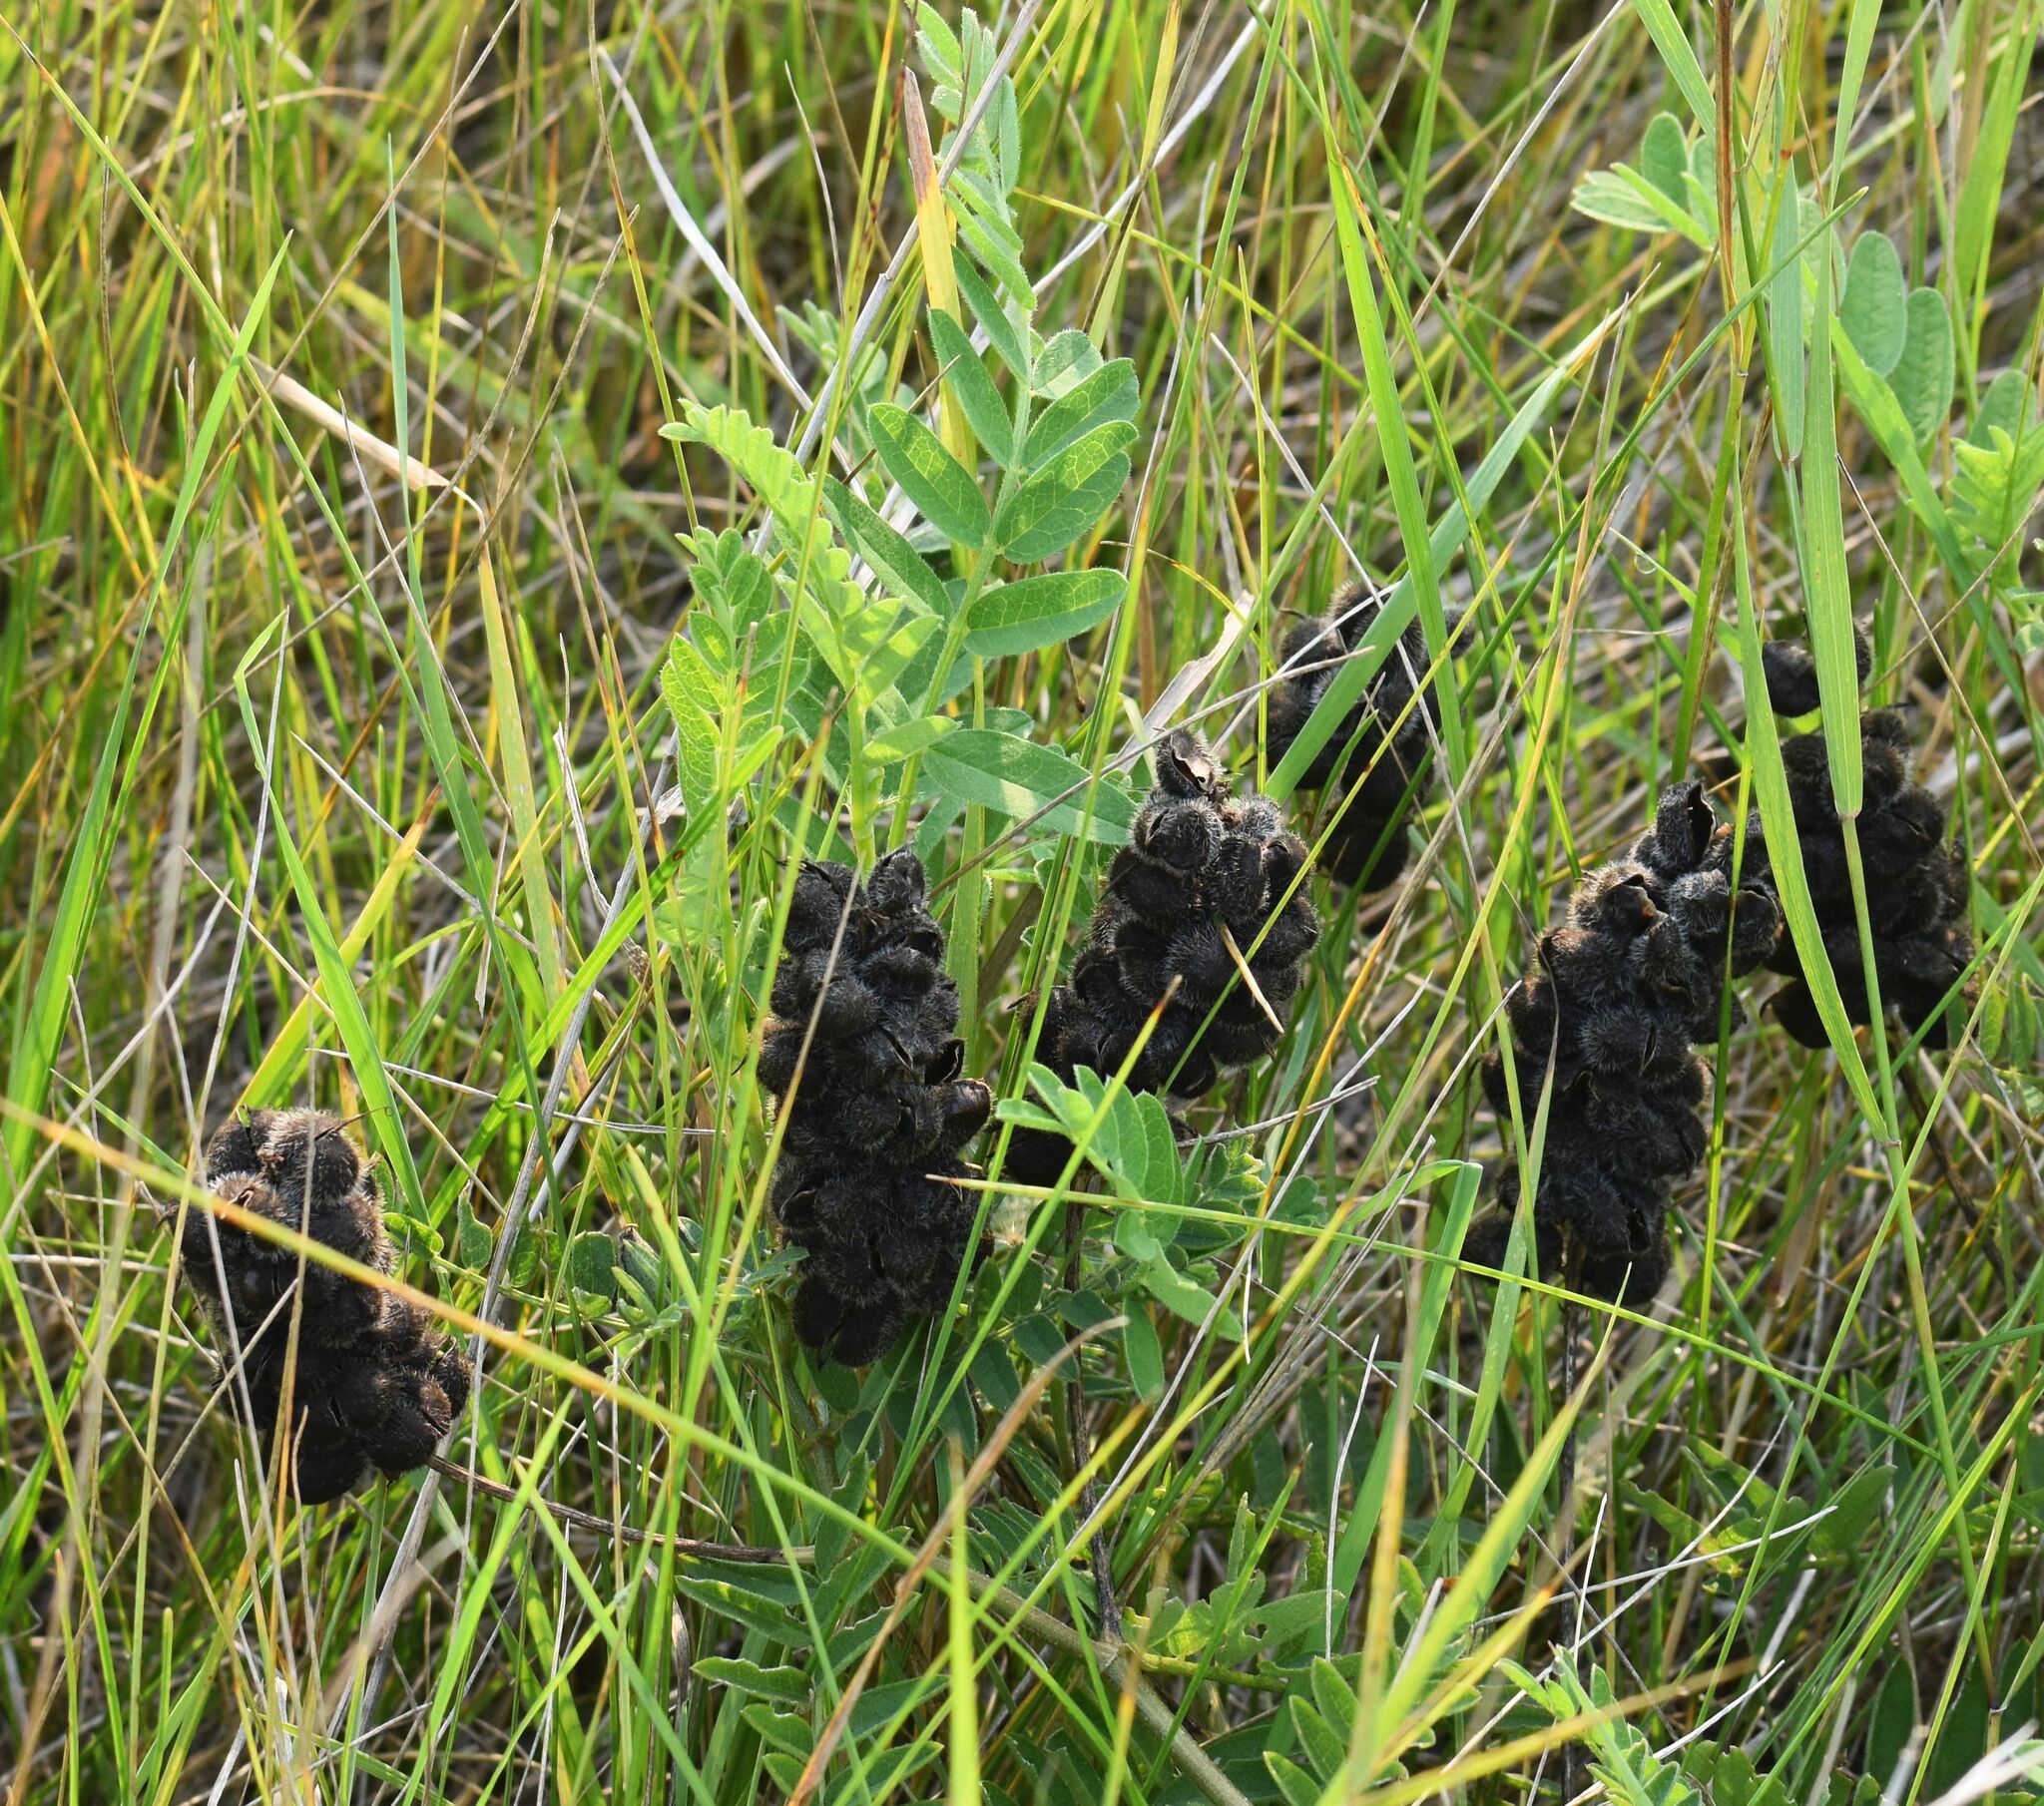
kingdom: Plantae
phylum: Tracheophyta
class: Magnoliopsida
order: Fabales
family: Fabaceae
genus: Astragalus
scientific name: Astragalus cicer
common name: Chick-pea milk-vetch
